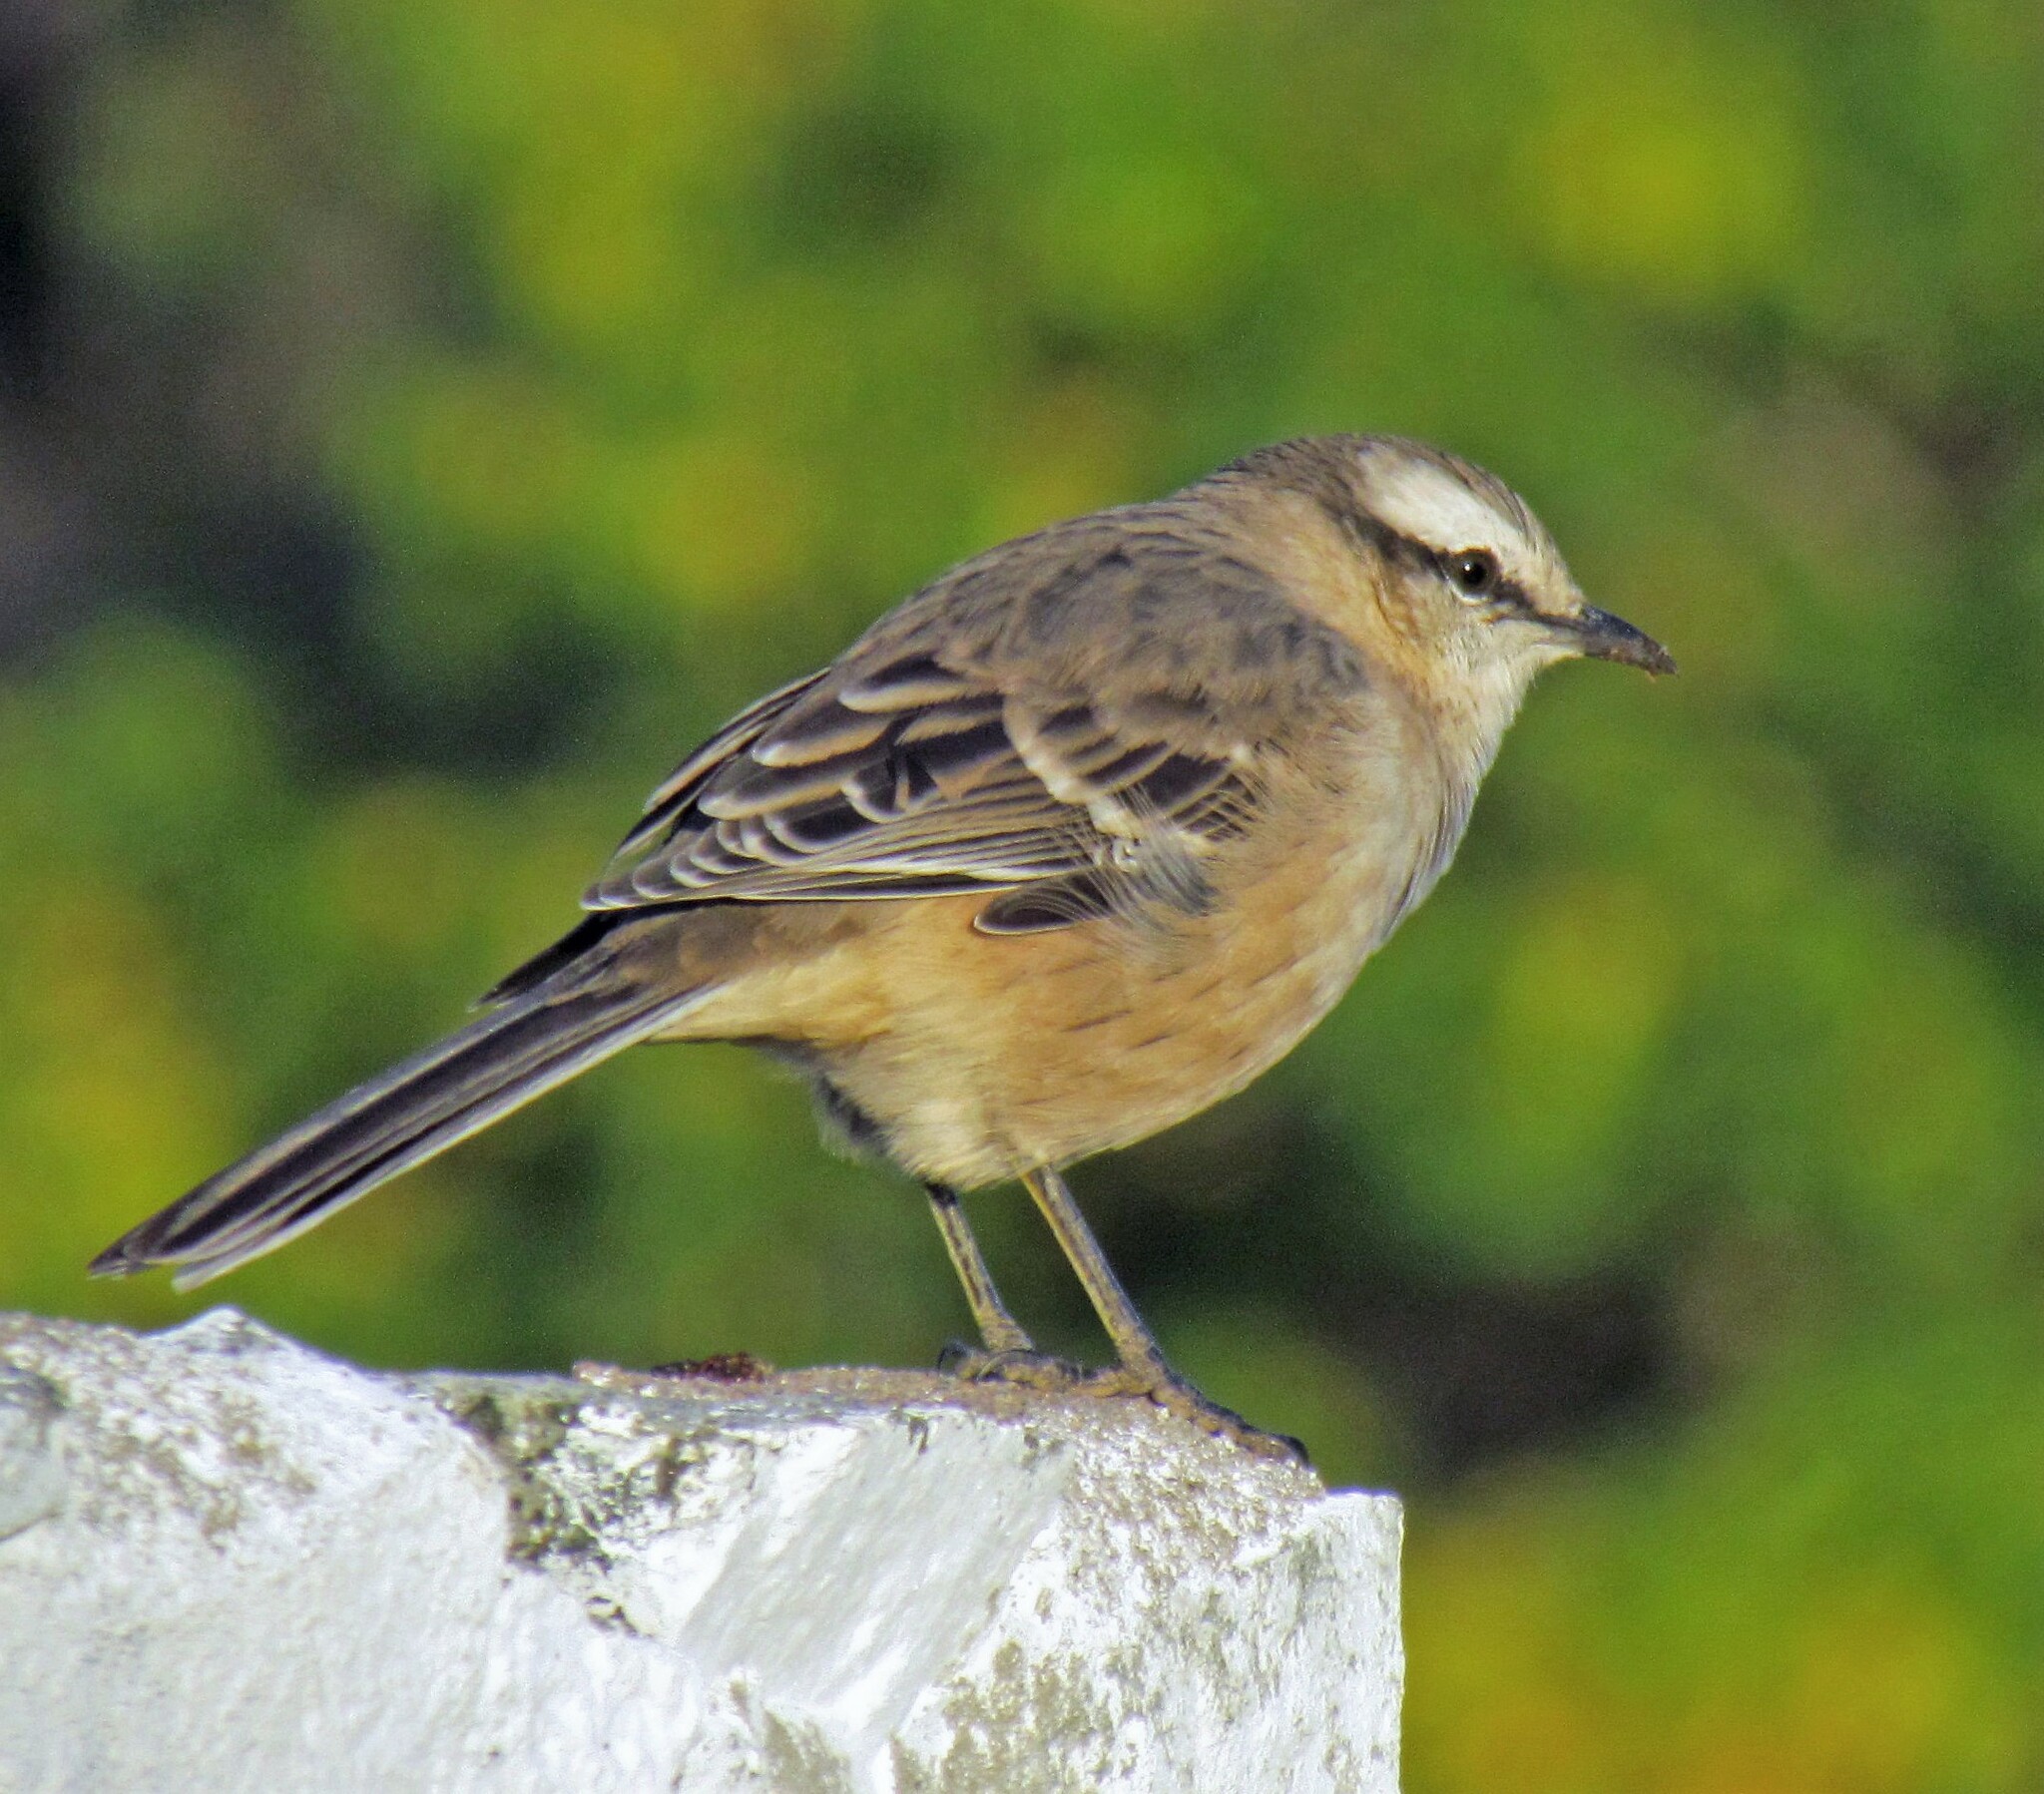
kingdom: Animalia
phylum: Chordata
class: Aves
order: Passeriformes
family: Mimidae
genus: Mimus
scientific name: Mimus saturninus
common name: Chalk-browed mockingbird
